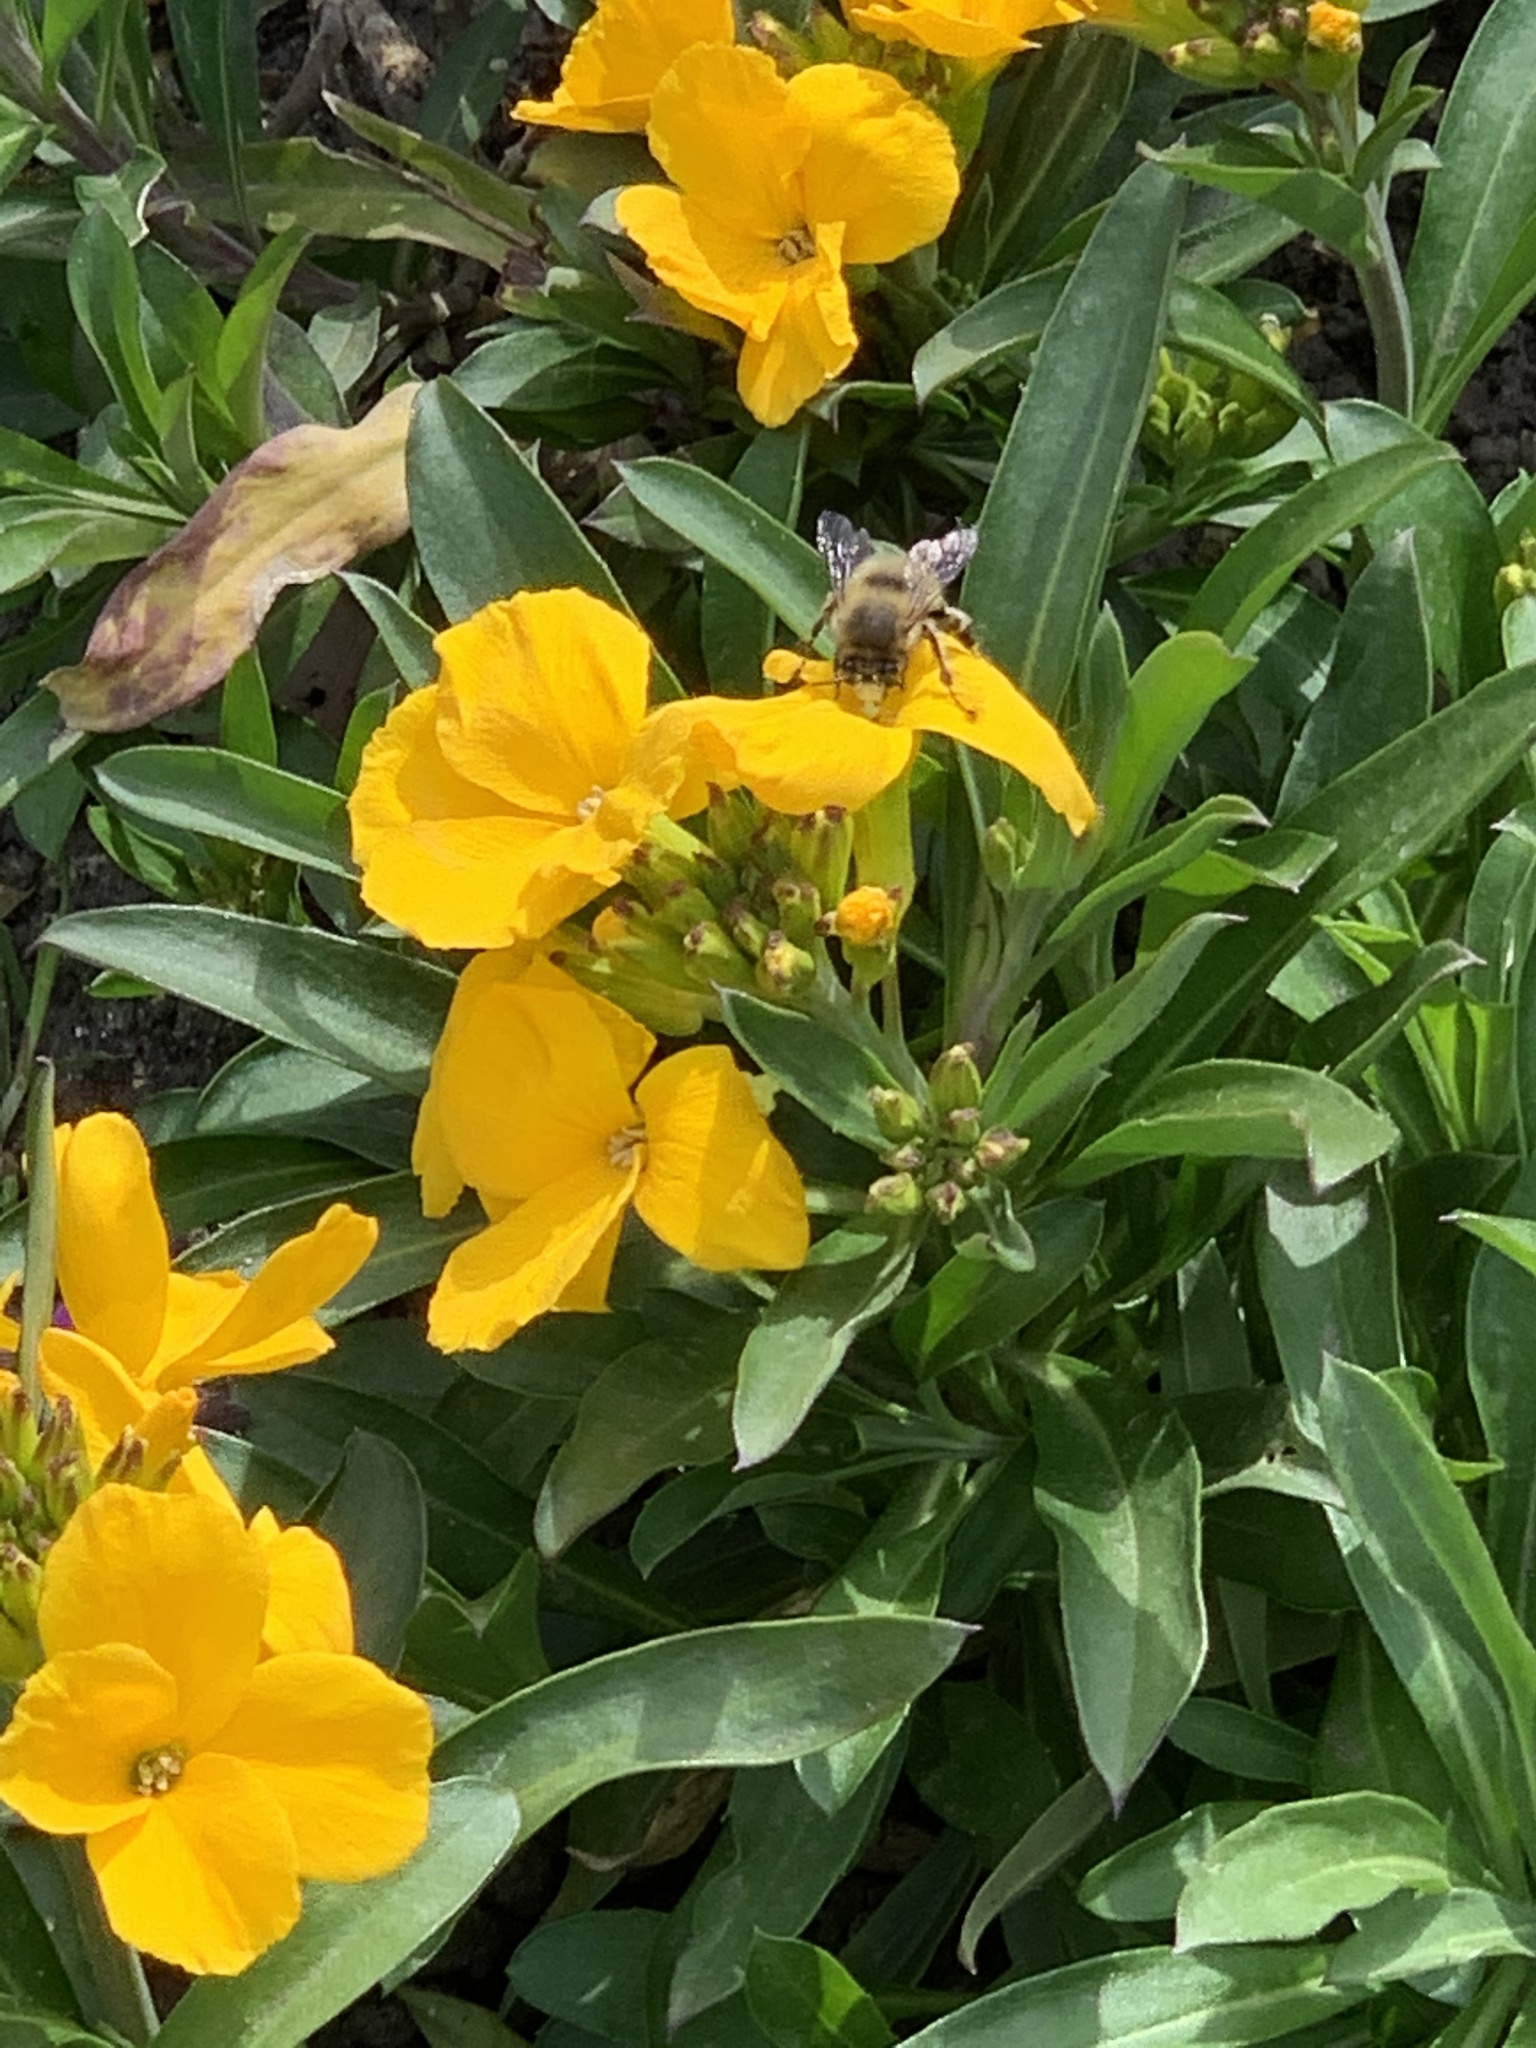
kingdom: Animalia
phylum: Arthropoda
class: Insecta
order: Hymenoptera
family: Apidae
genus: Anthophora
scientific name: Anthophora plumipes
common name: Hairy-footed flower bee
